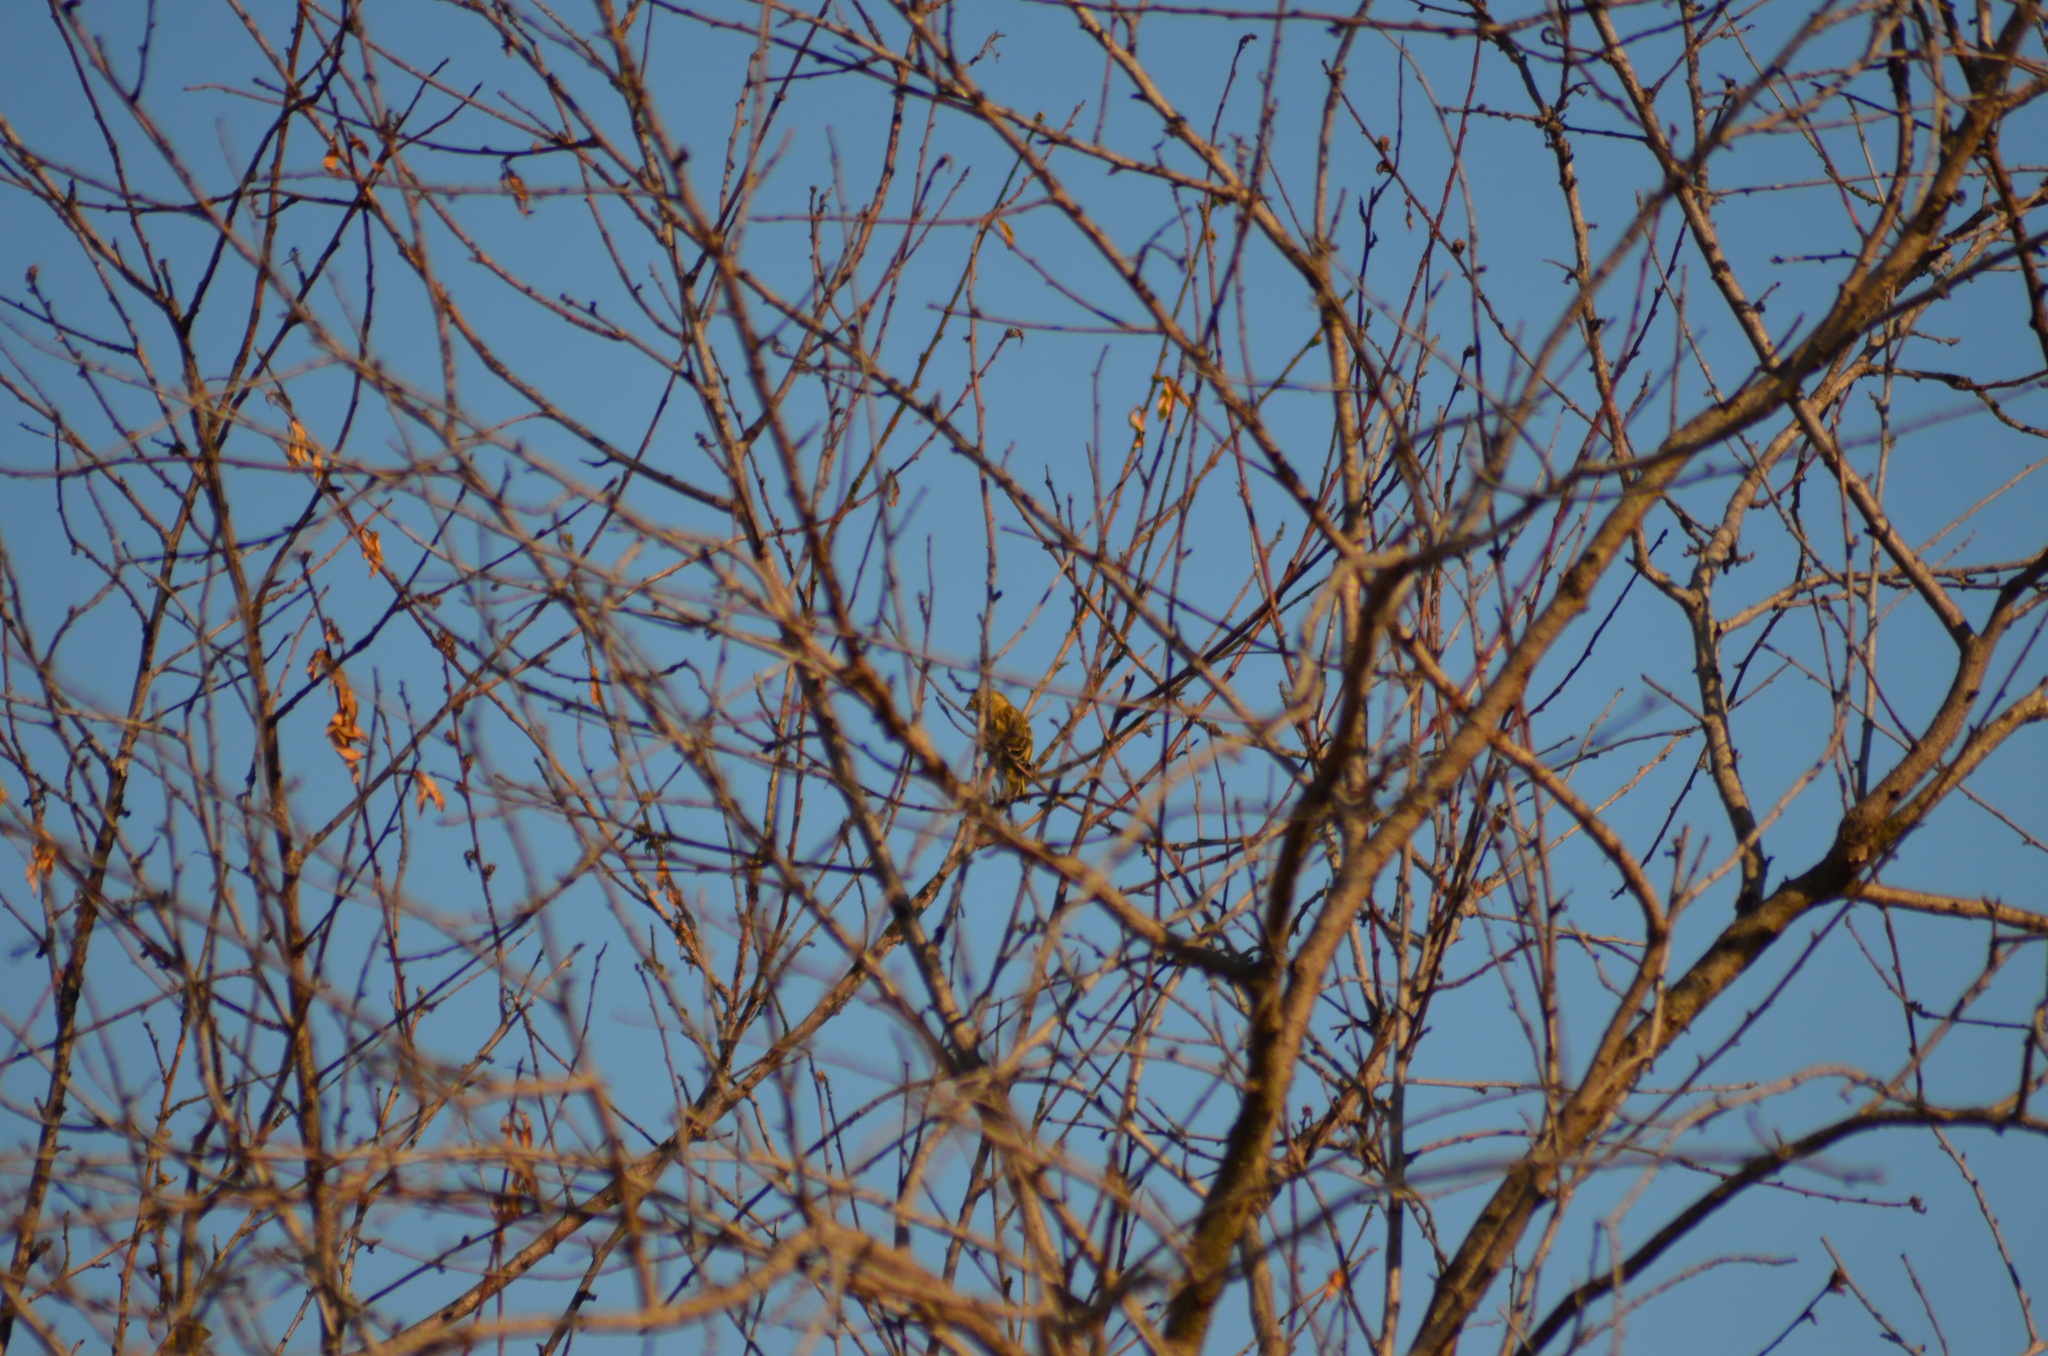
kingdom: Animalia
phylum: Chordata
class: Aves
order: Passeriformes
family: Fringillidae
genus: Serinus
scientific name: Serinus serinus
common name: European serin
